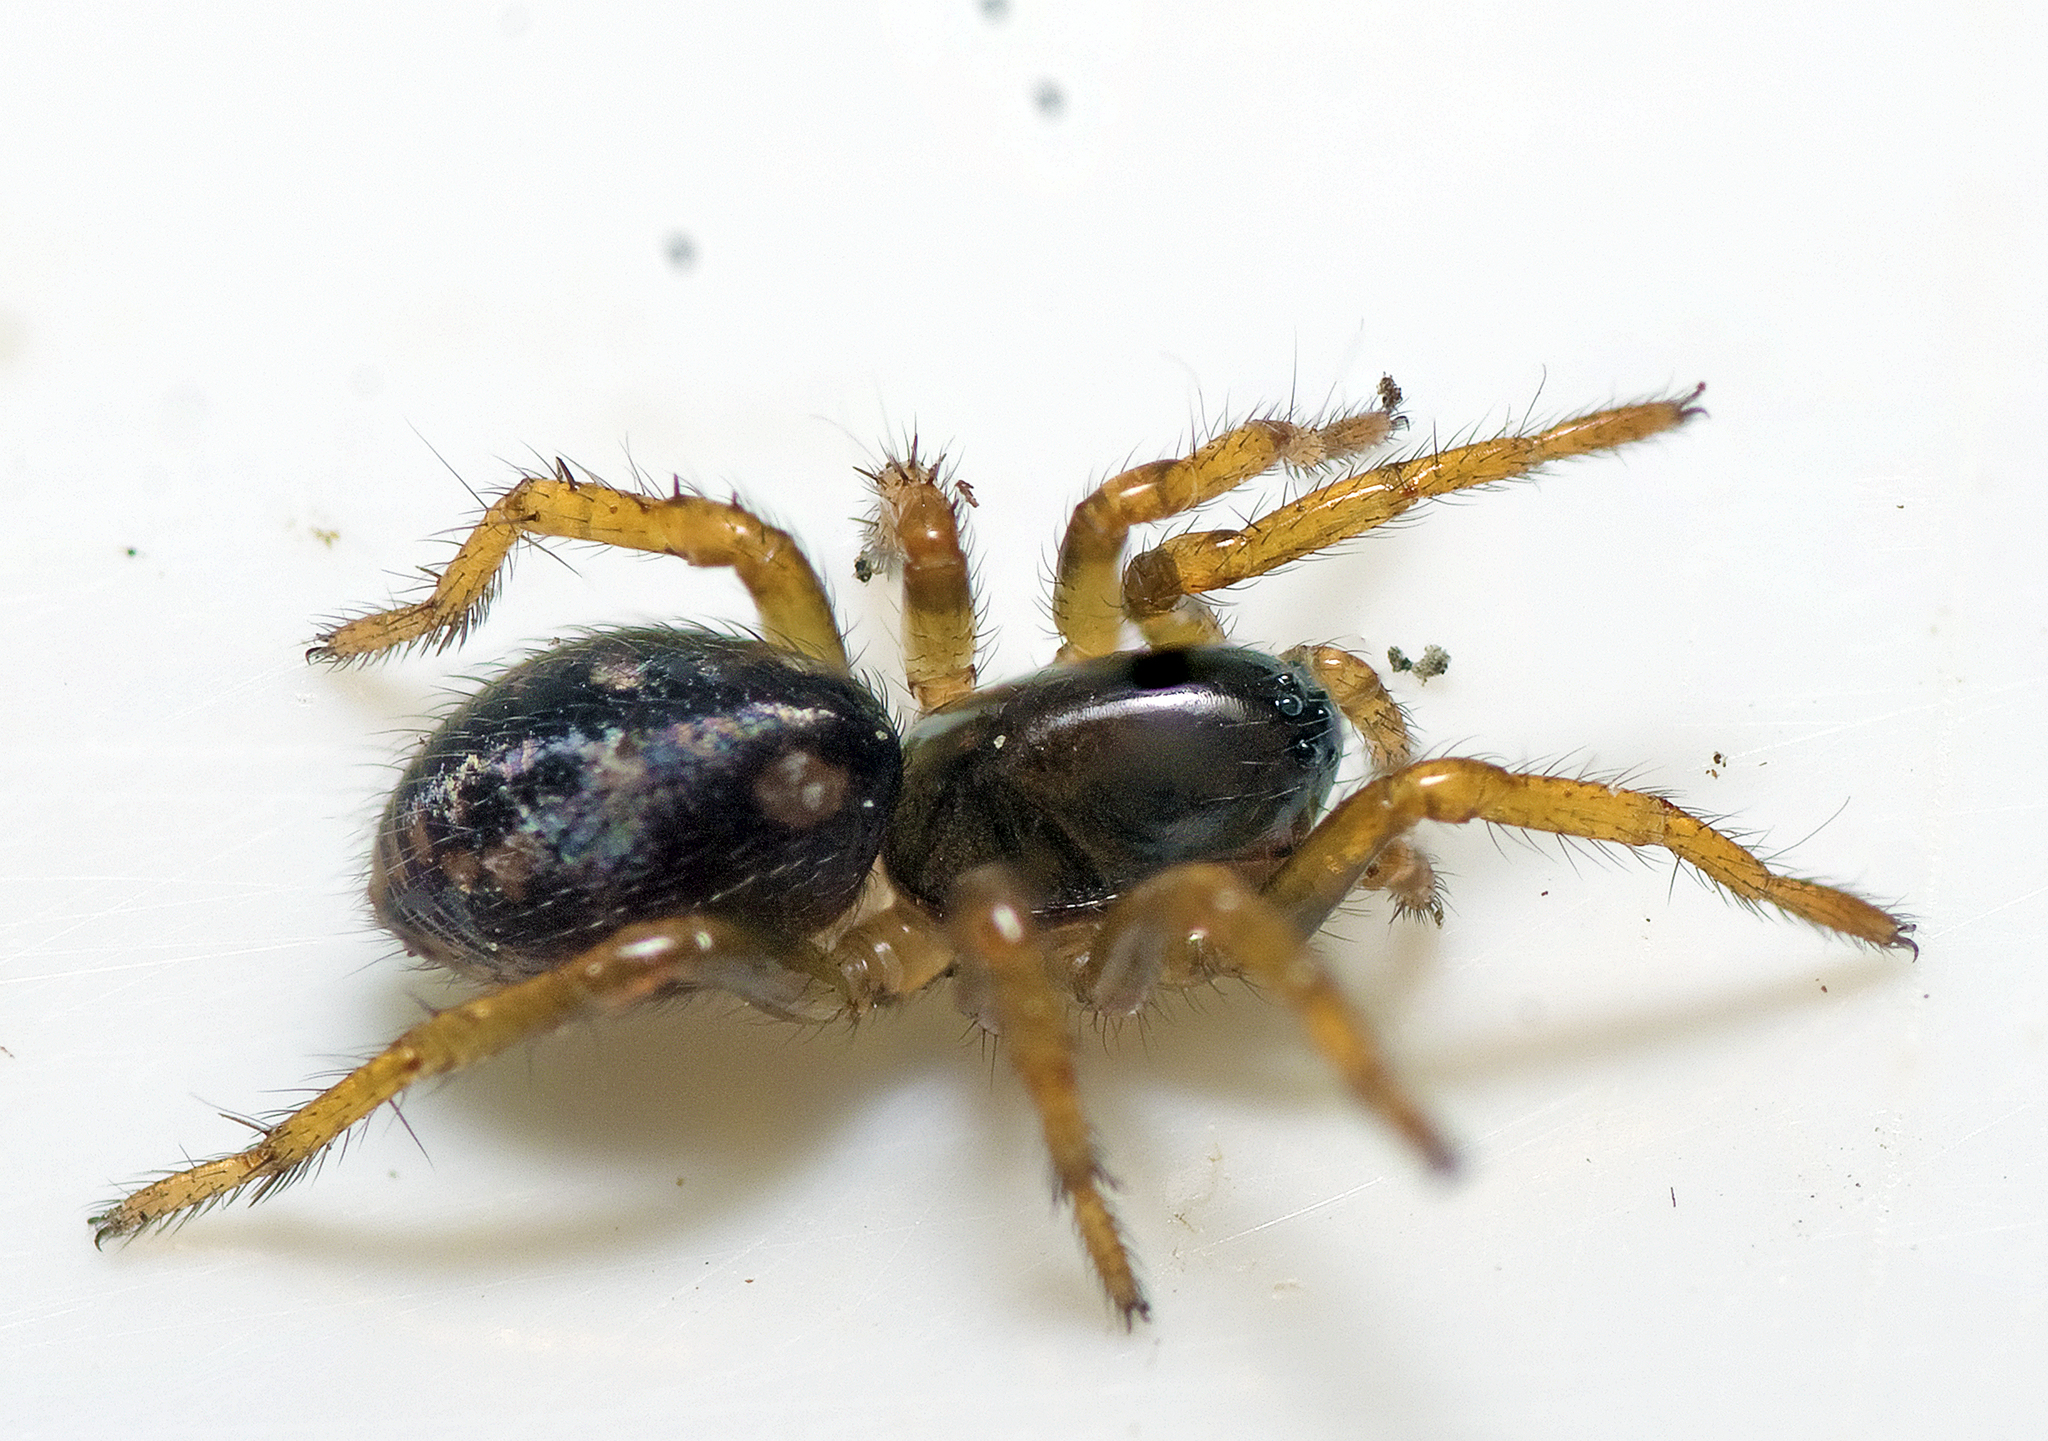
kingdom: Animalia
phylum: Arthropoda
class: Arachnida
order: Araneae
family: Zodariidae
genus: Neostorena
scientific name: Neostorena minor
